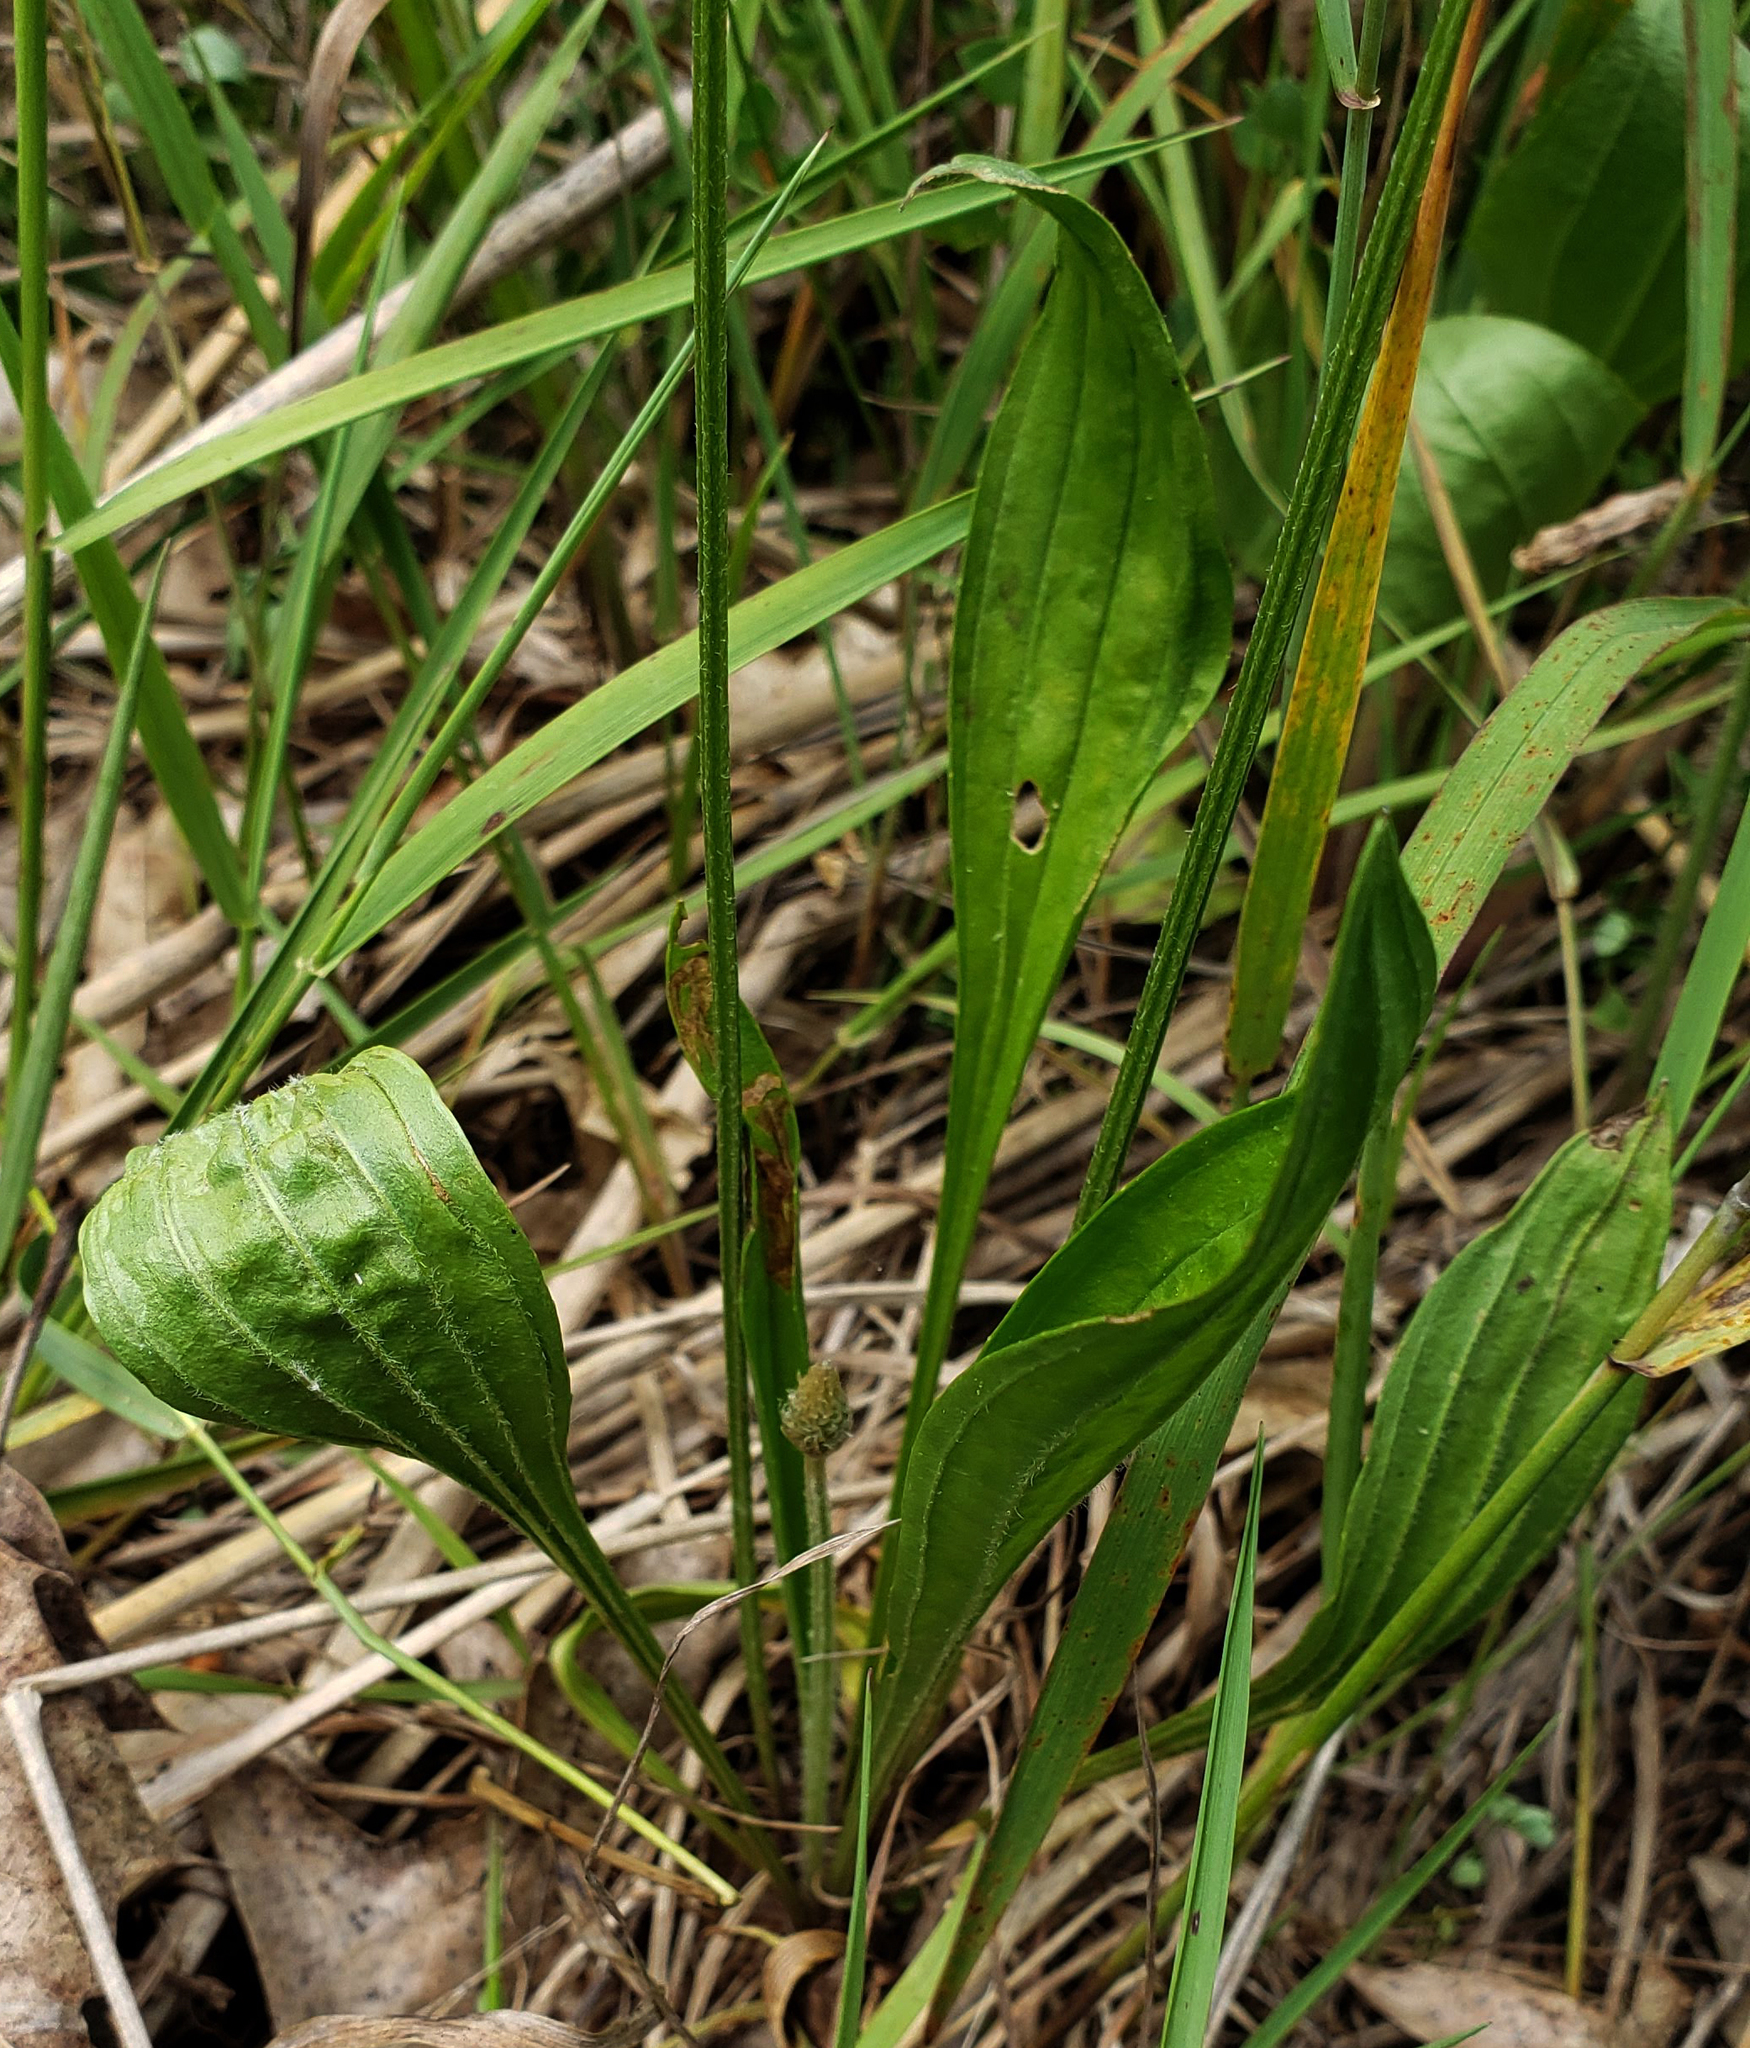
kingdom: Plantae
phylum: Tracheophyta
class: Magnoliopsida
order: Lamiales
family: Plantaginaceae
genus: Plantago
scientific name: Plantago lanceolata
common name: Ribwort plantain
